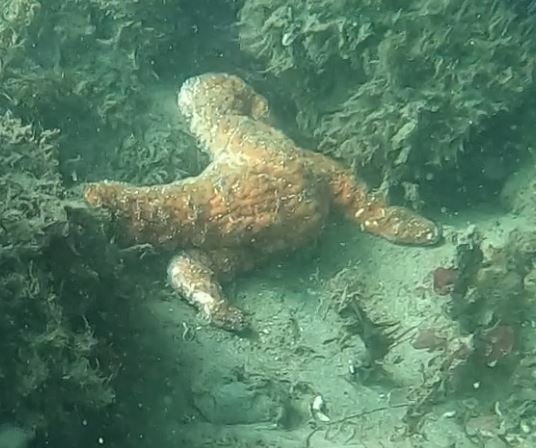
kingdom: Animalia
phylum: Echinodermata
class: Asteroidea
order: Forcipulatida
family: Asteriidae
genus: Pisaster
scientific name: Pisaster ochraceus
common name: Ochre stars
